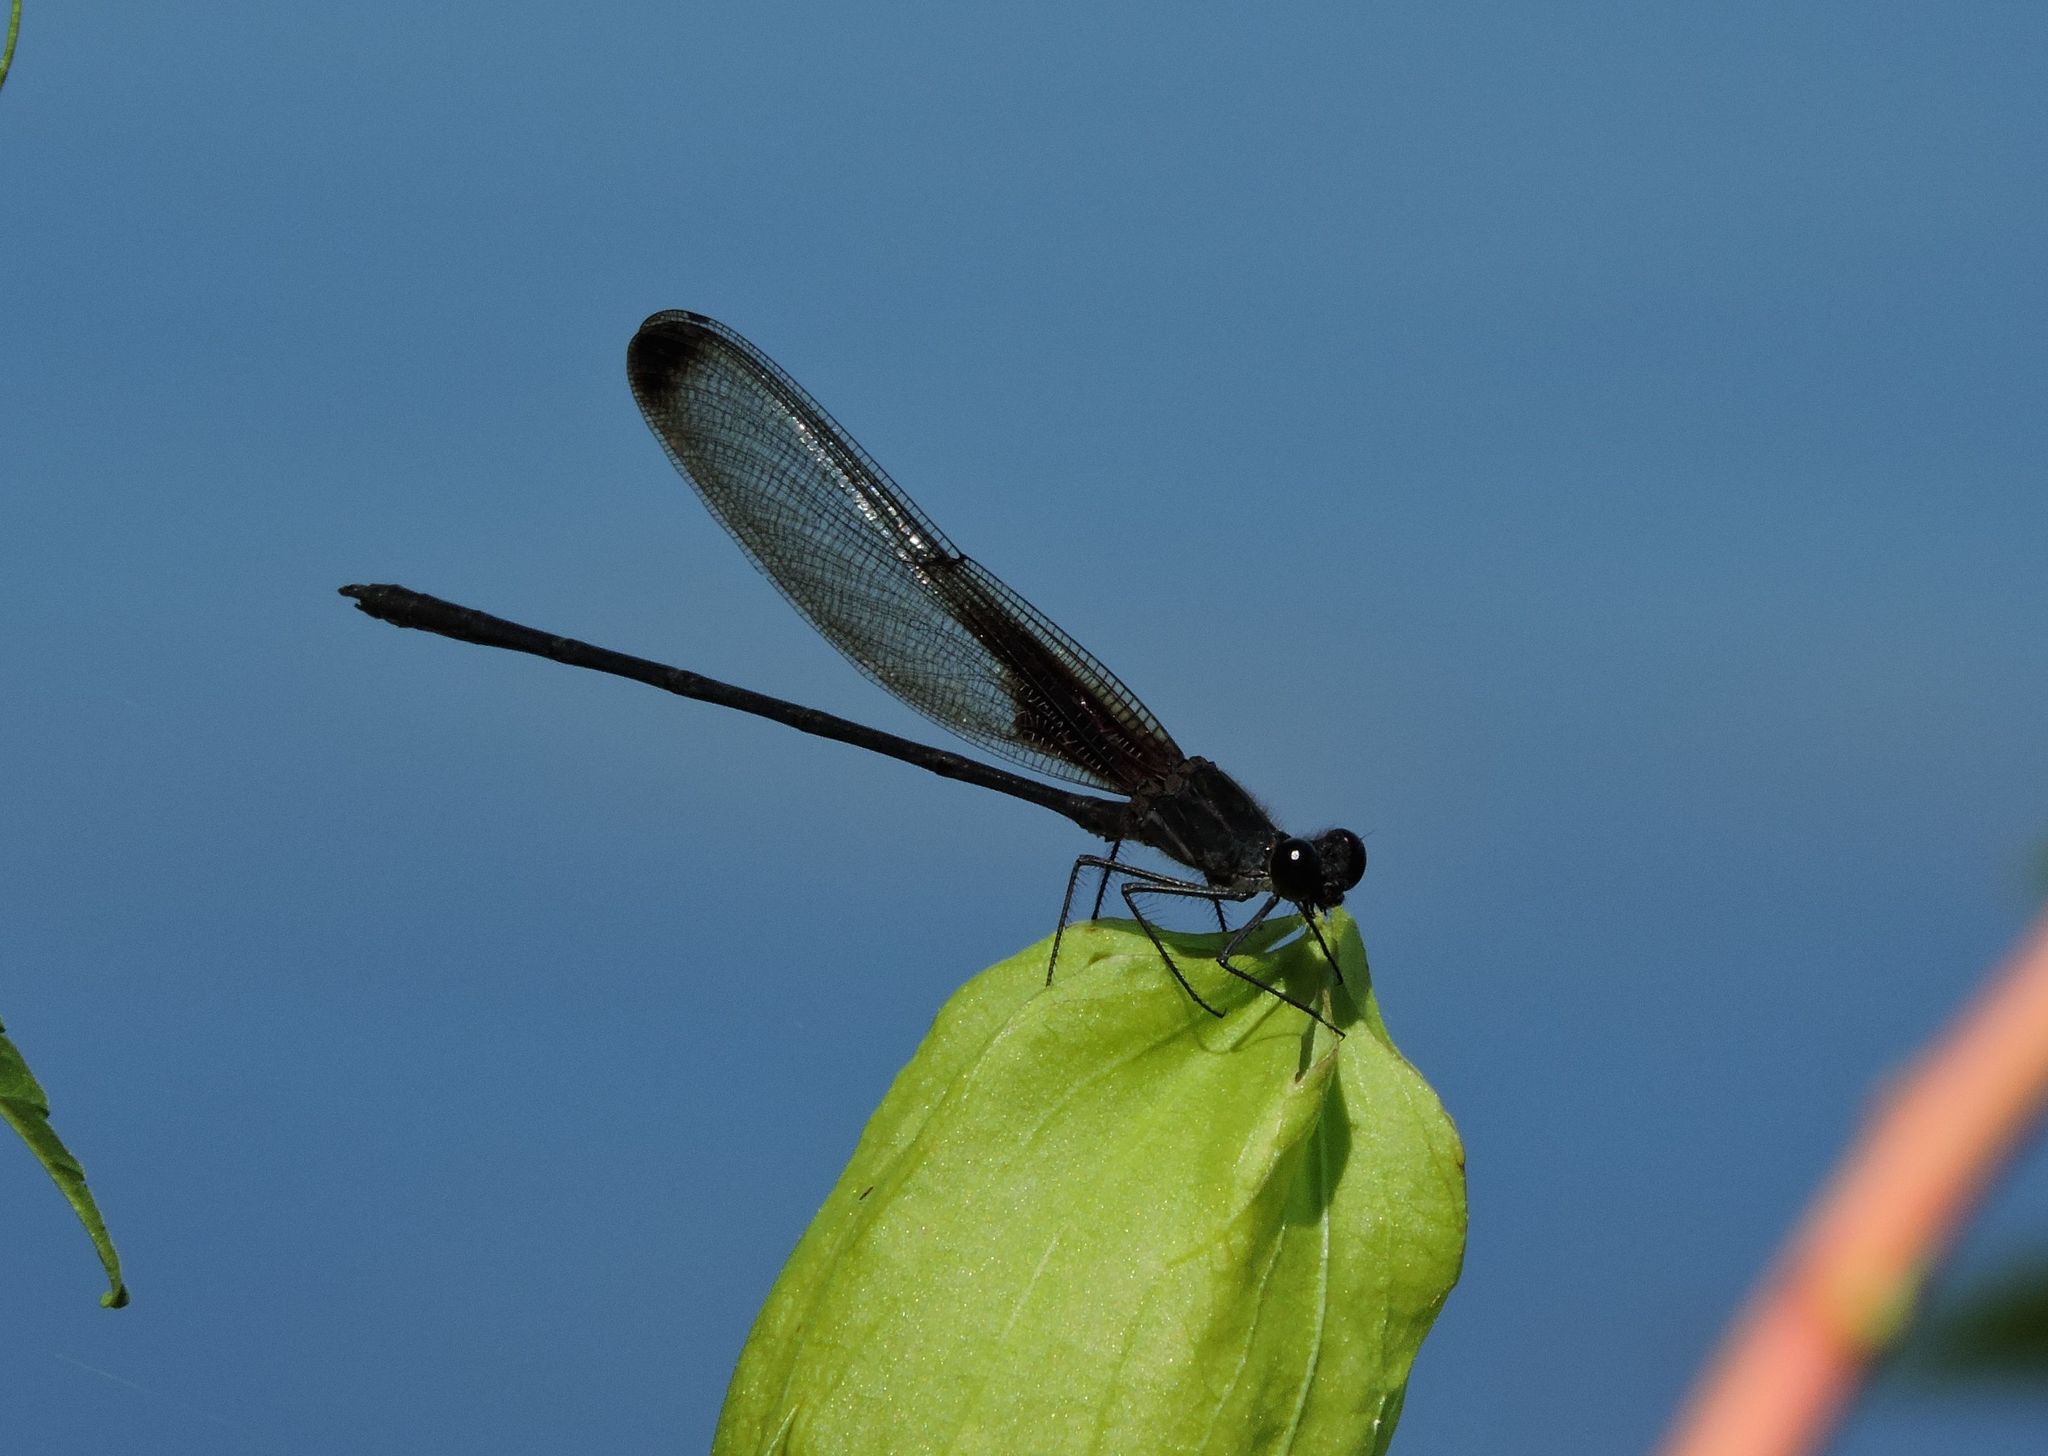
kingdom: Animalia
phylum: Arthropoda
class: Insecta
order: Odonata
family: Calopterygidae
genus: Hetaerina
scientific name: Hetaerina titia
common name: Smoky rubyspot
